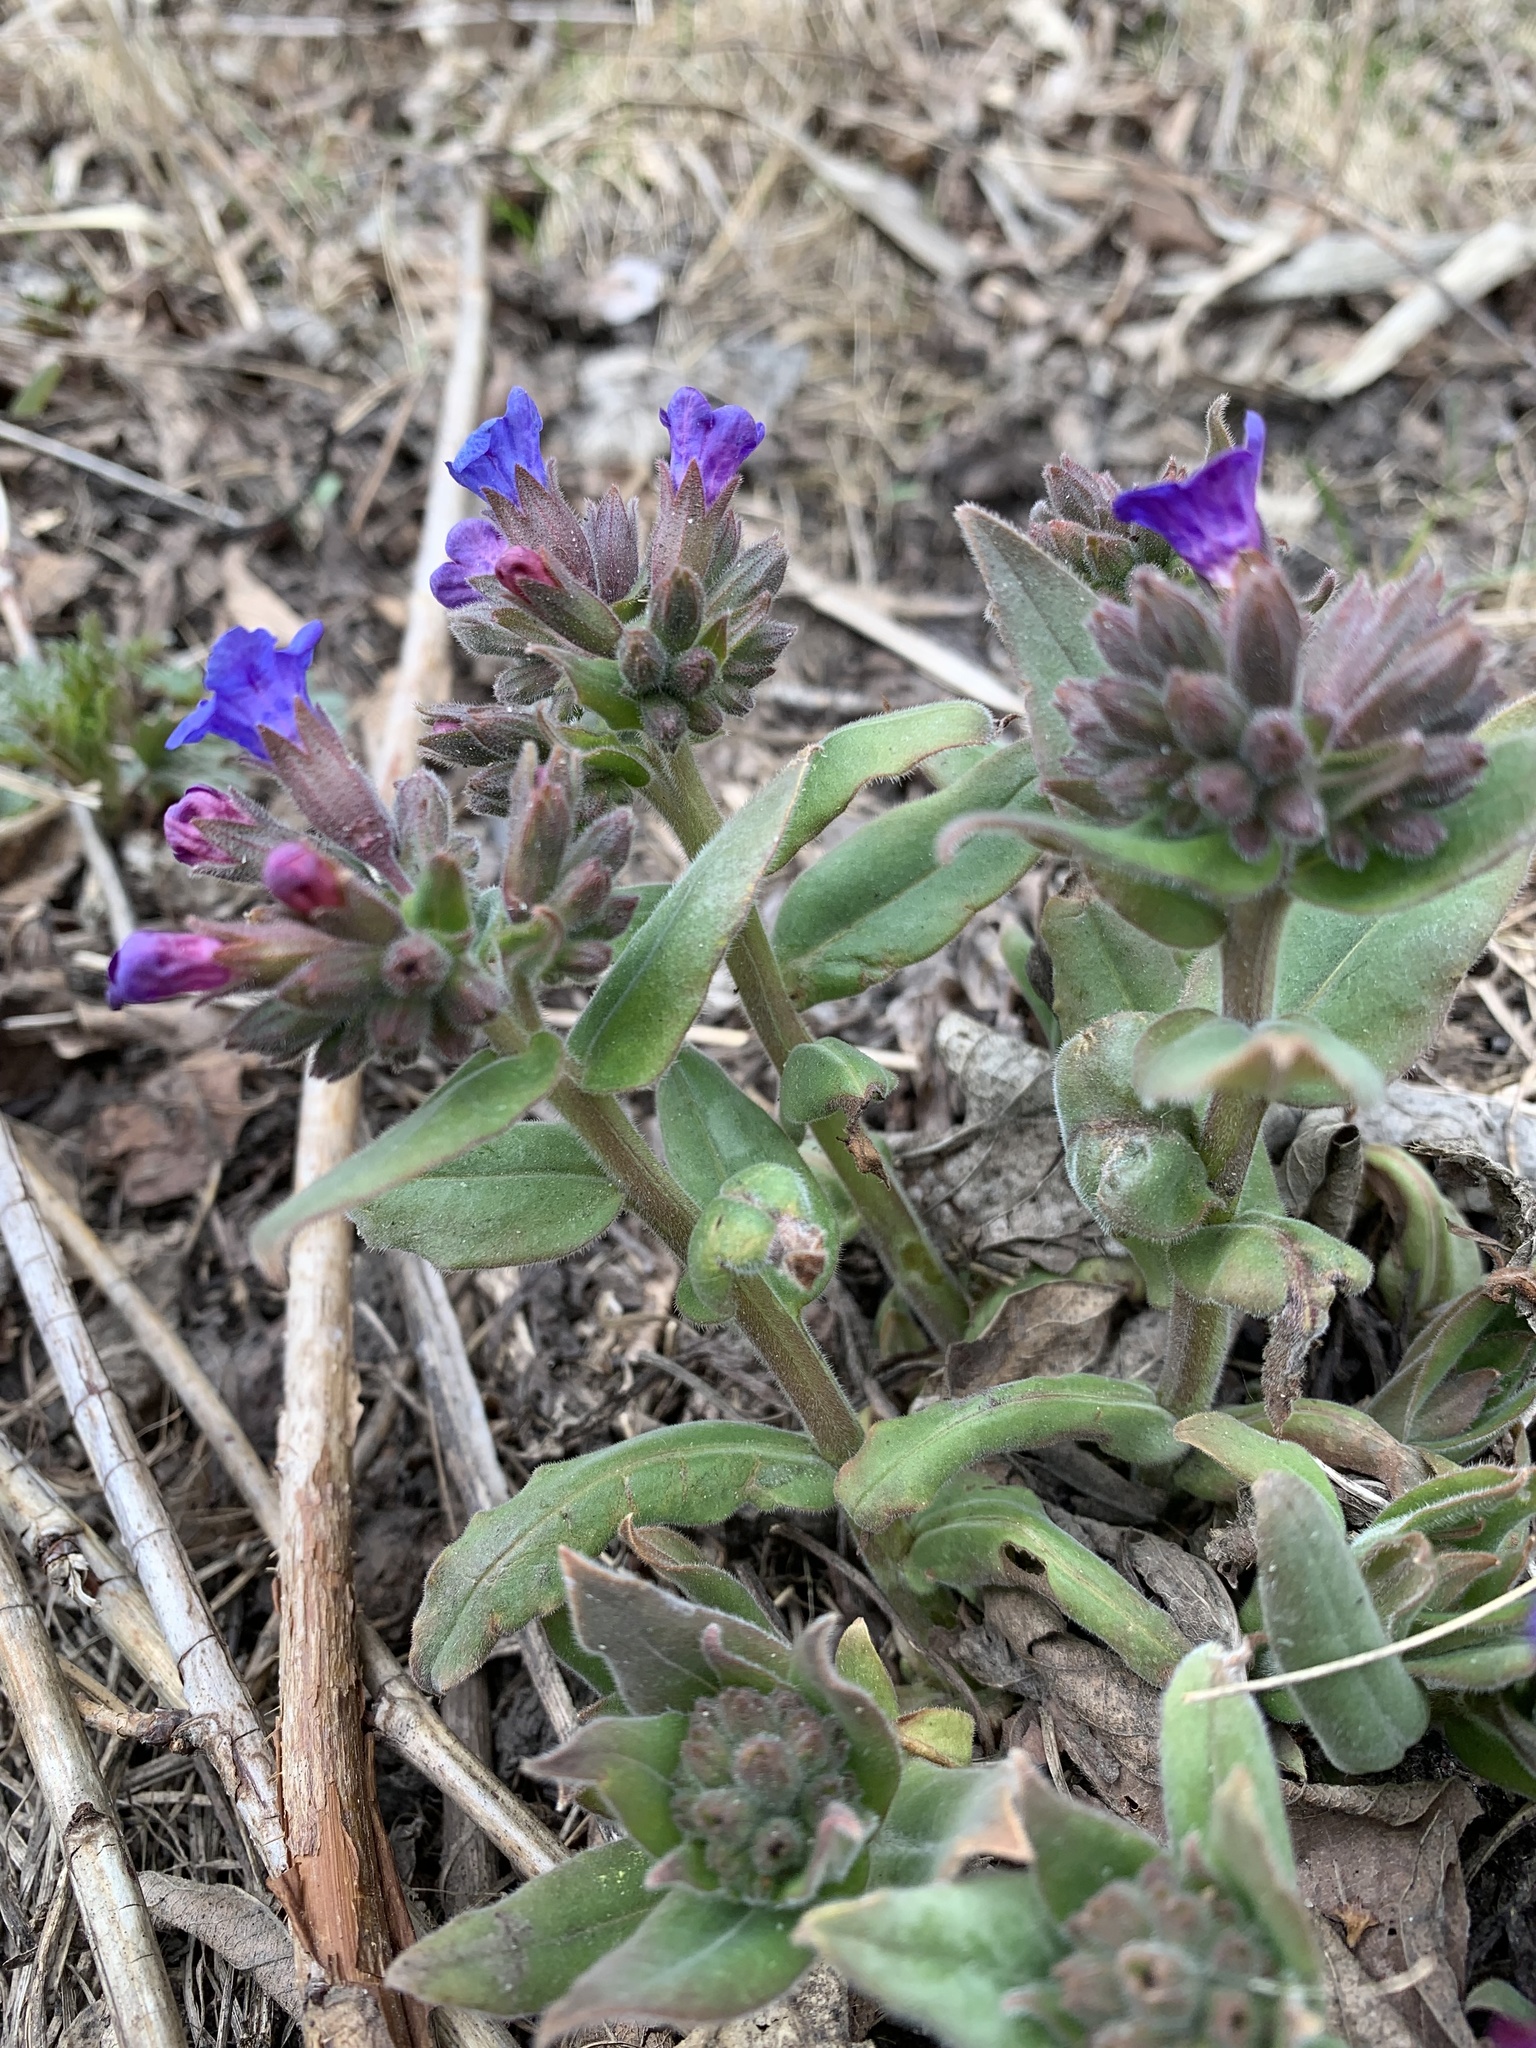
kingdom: Plantae
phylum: Tracheophyta
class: Magnoliopsida
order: Boraginales
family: Boraginaceae
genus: Pulmonaria
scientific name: Pulmonaria mollis
